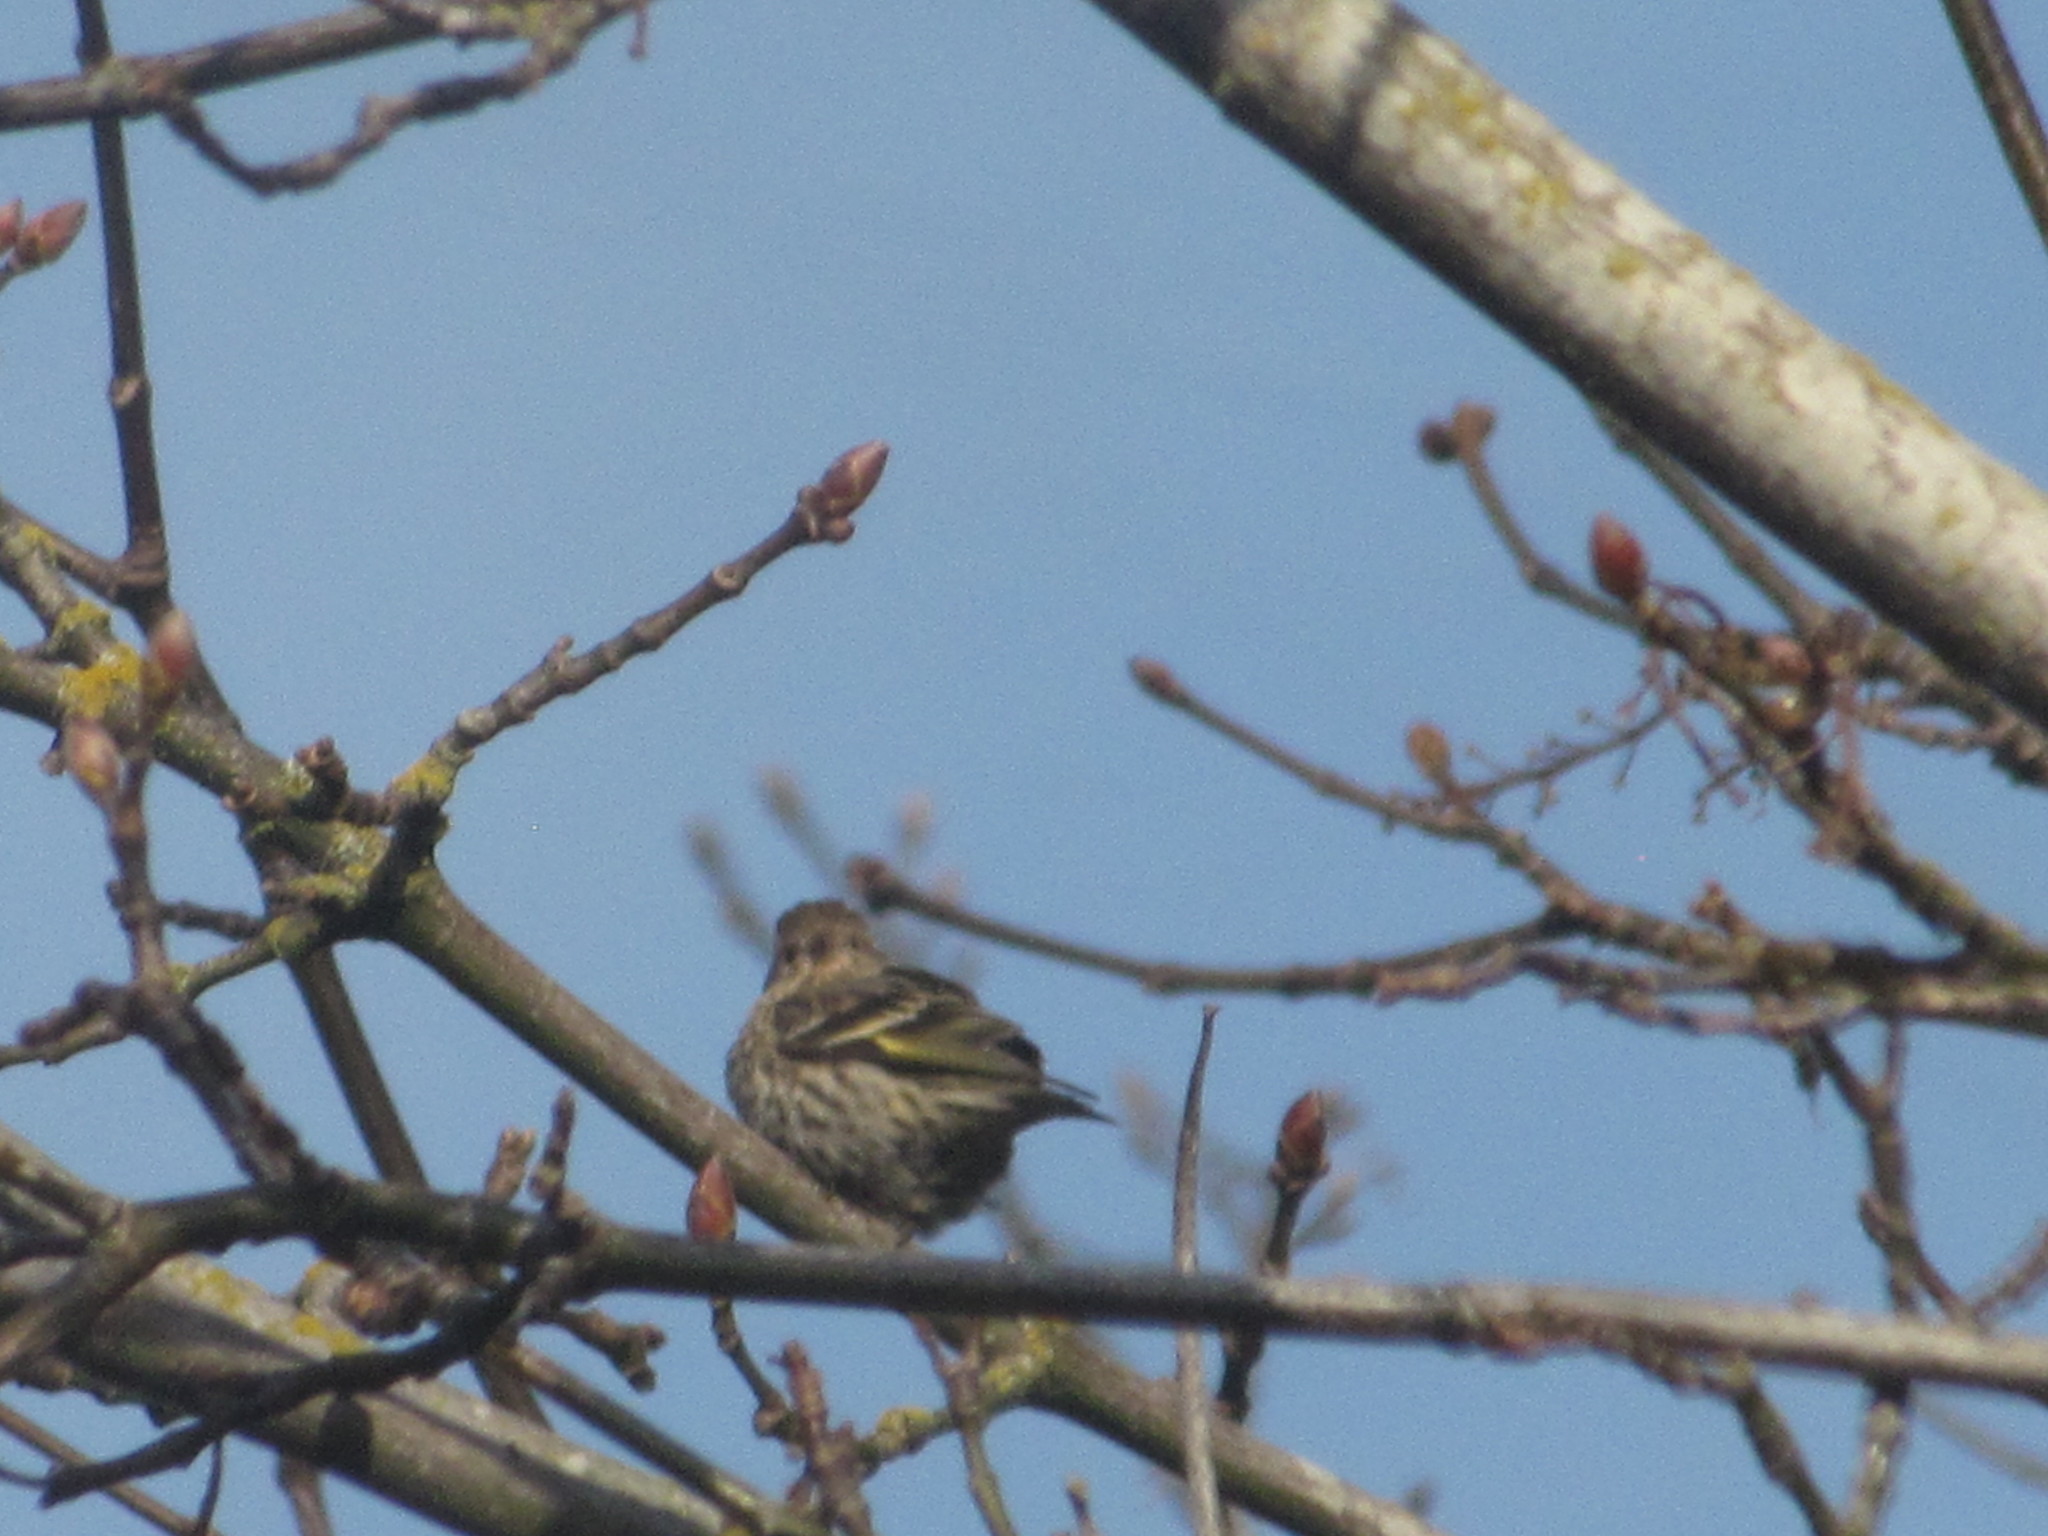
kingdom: Animalia
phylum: Chordata
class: Aves
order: Passeriformes
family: Fringillidae
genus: Spinus
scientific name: Spinus pinus
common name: Pine siskin
